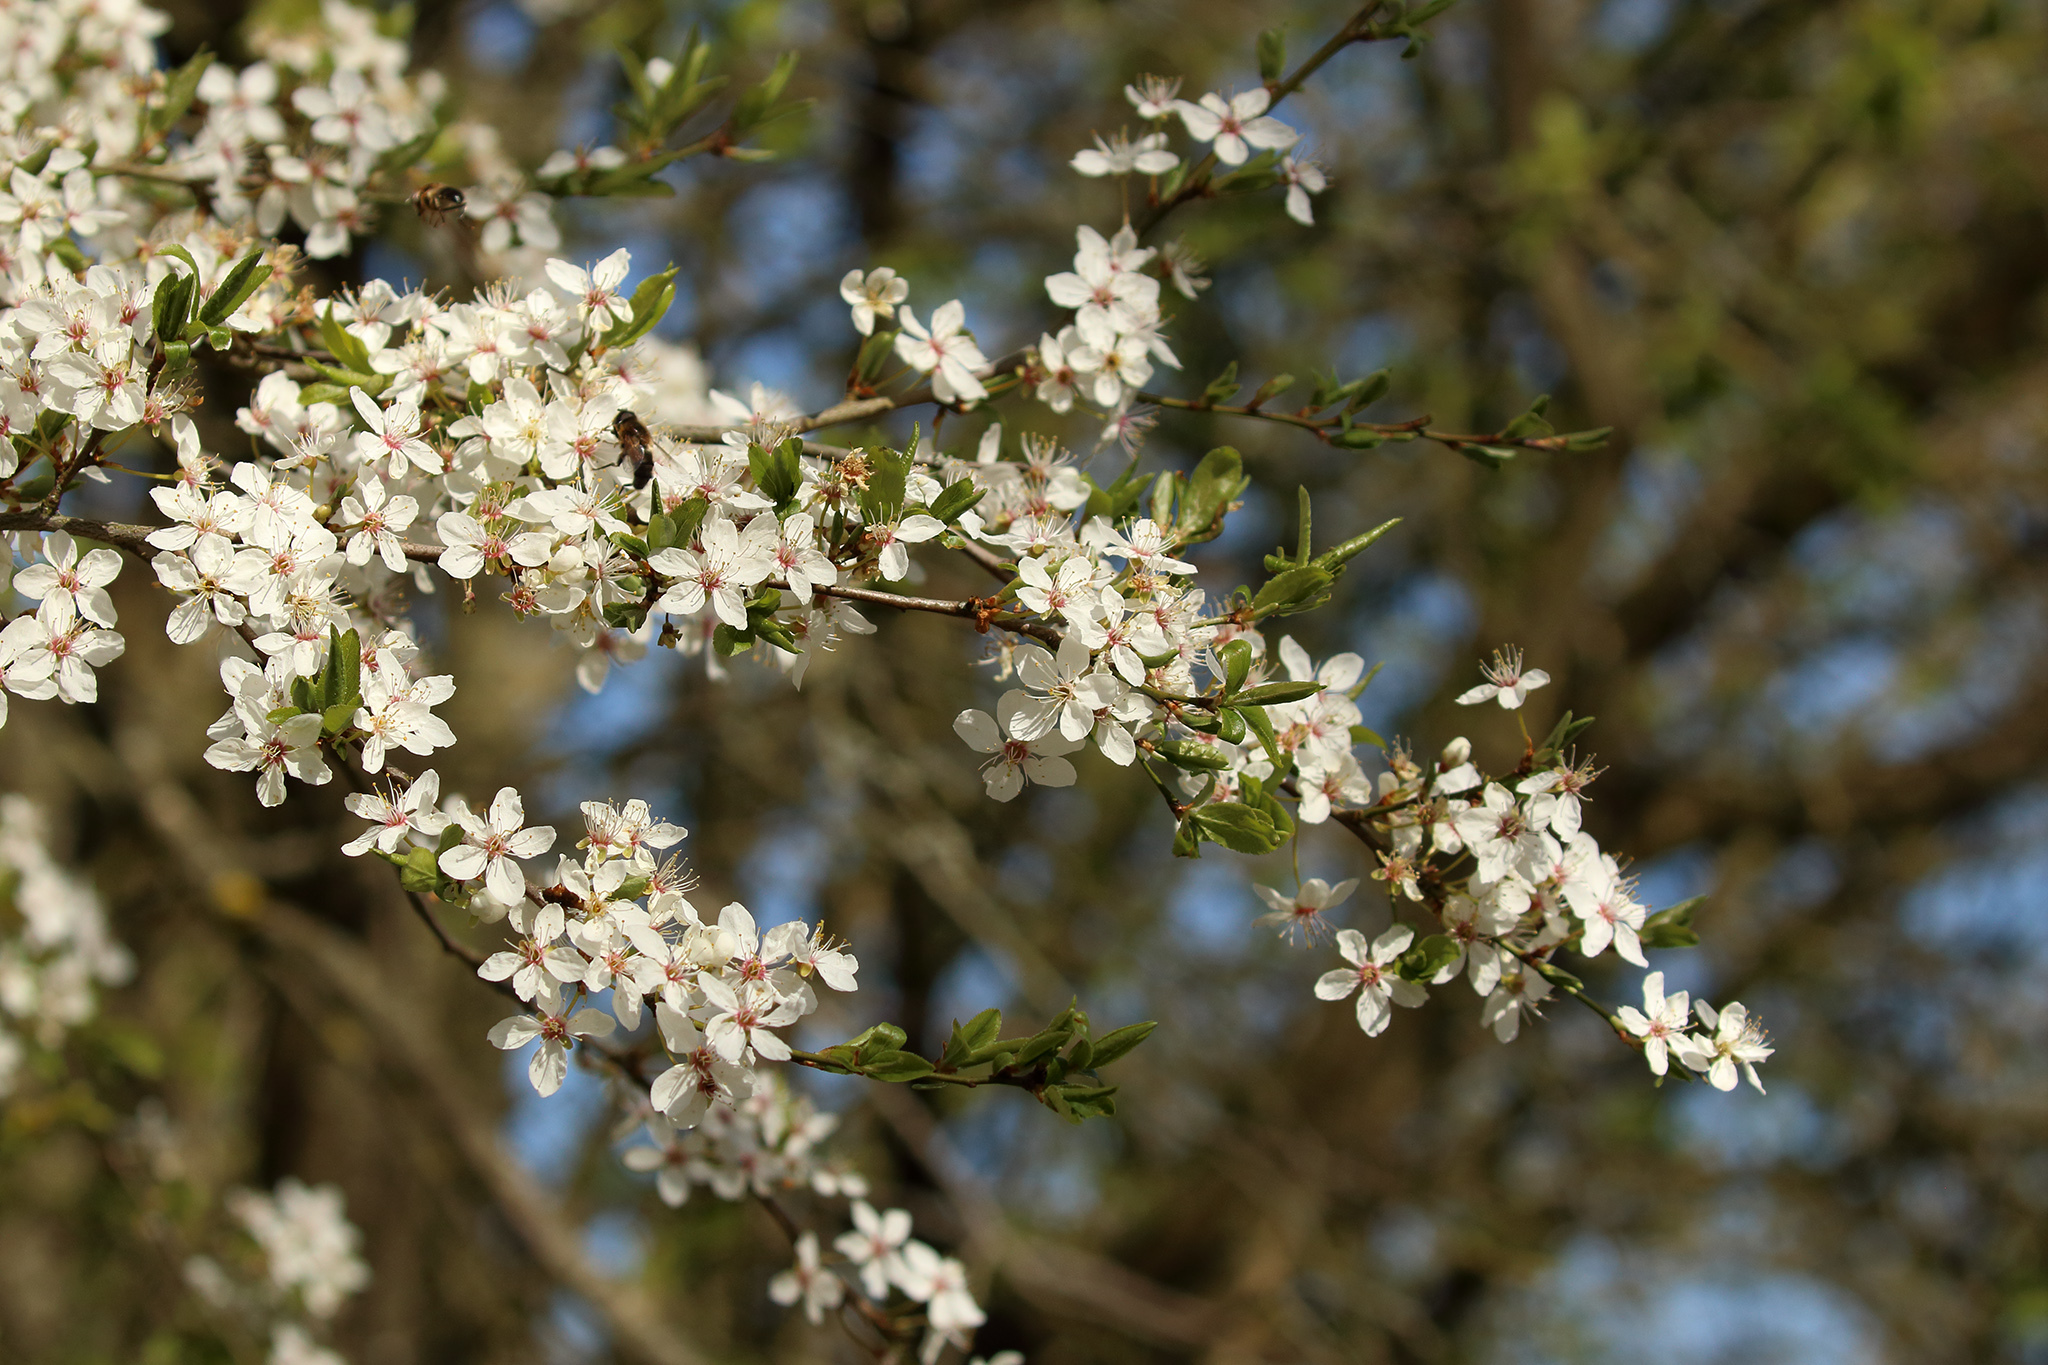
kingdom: Plantae
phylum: Tracheophyta
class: Magnoliopsida
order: Rosales
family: Rosaceae
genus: Prunus
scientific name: Prunus cerasifera
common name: Cherry plum
